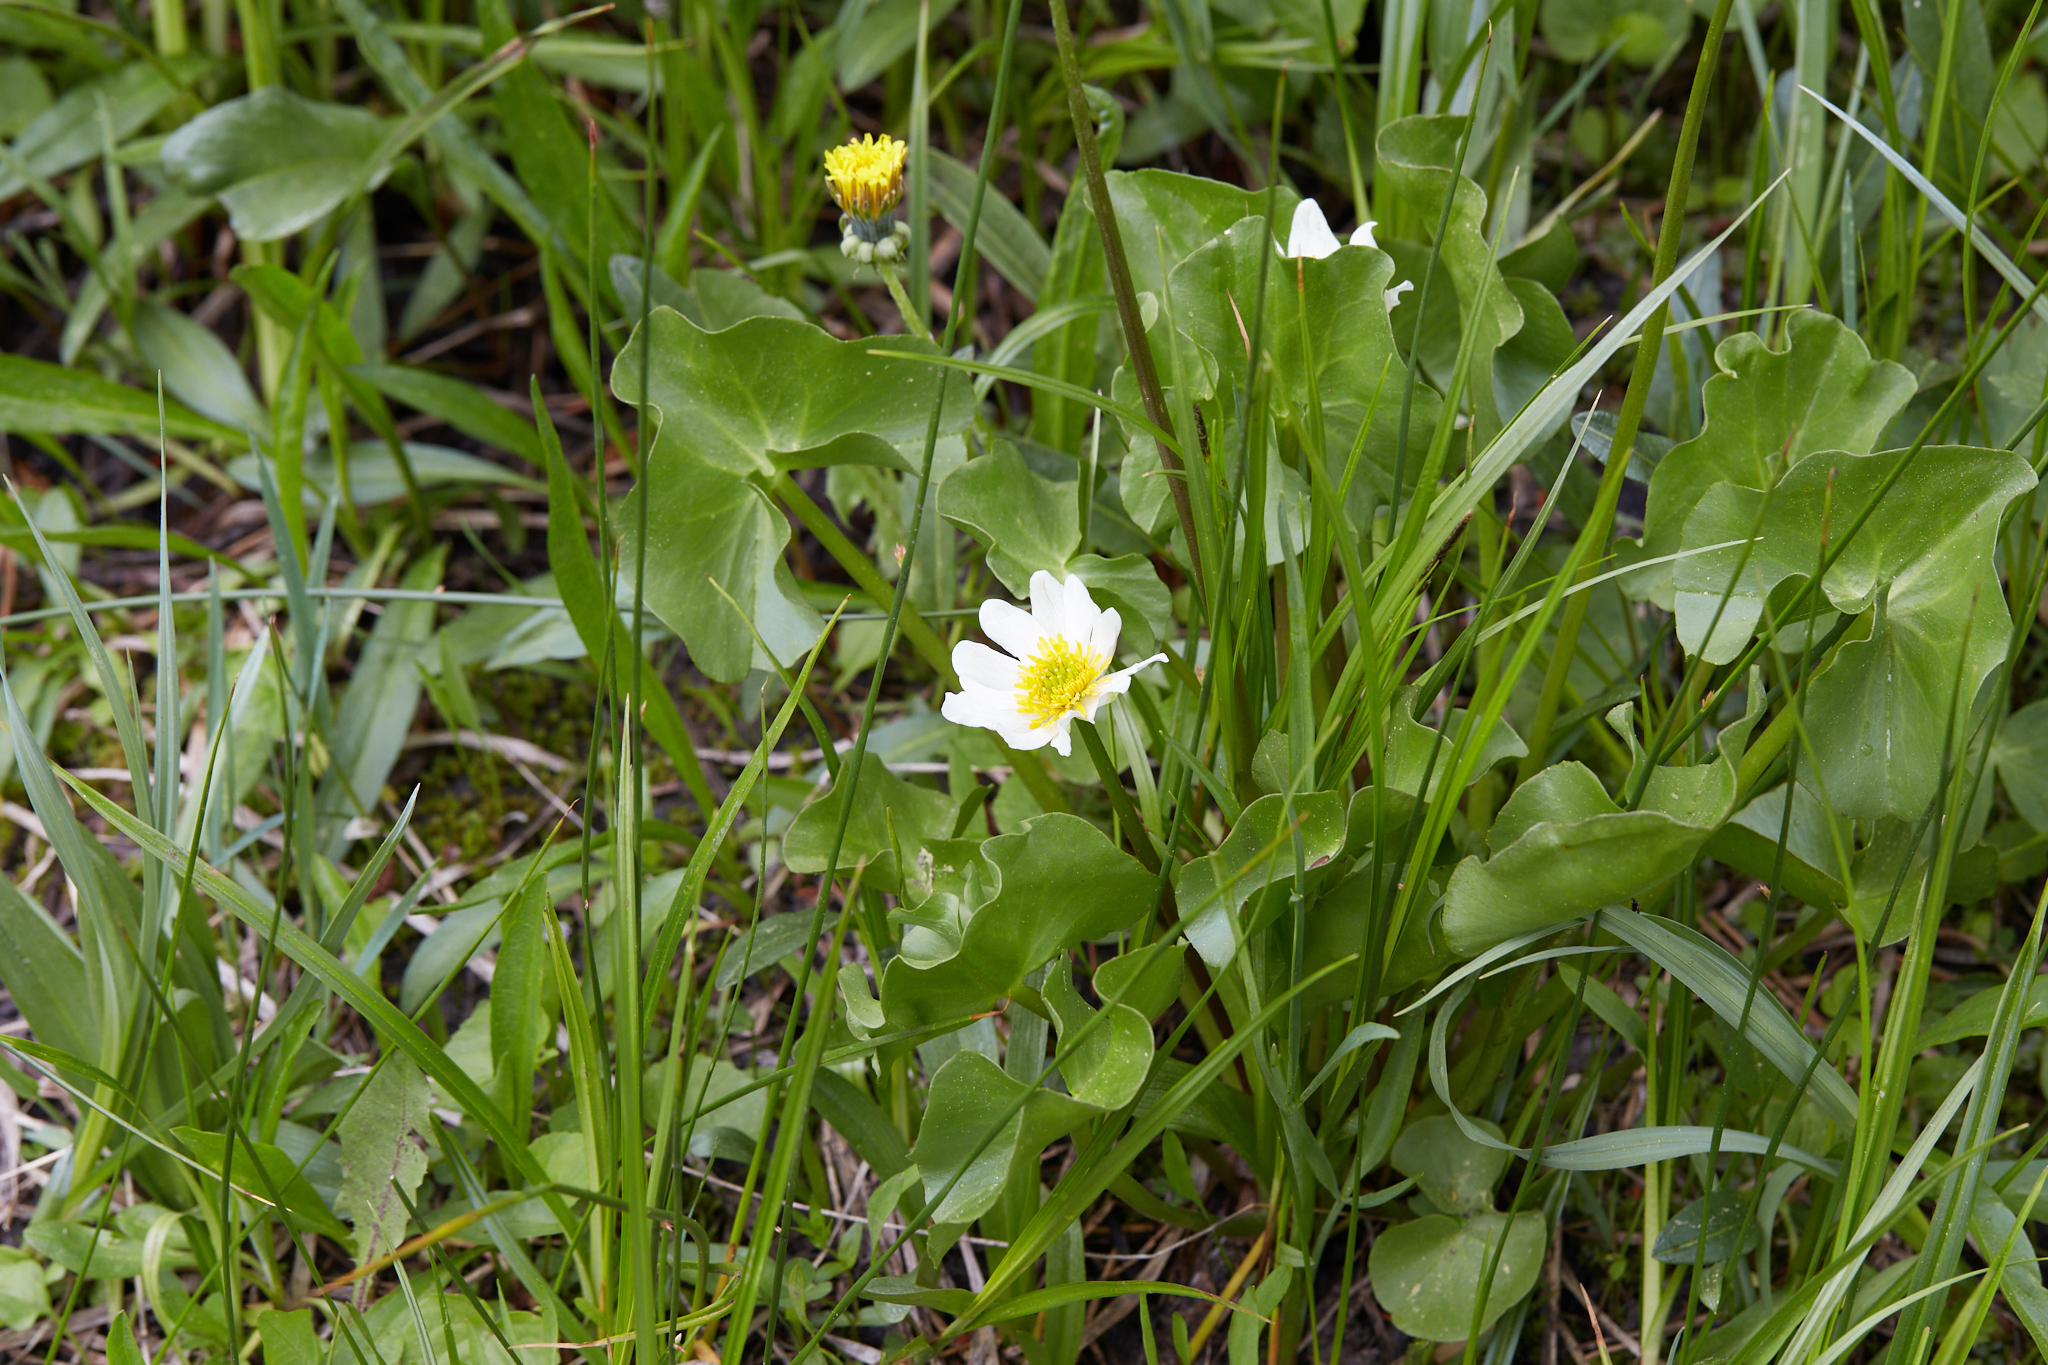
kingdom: Plantae
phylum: Tracheophyta
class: Magnoliopsida
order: Ranunculales
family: Ranunculaceae
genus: Caltha
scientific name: Caltha leptosepala
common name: Elkslip
